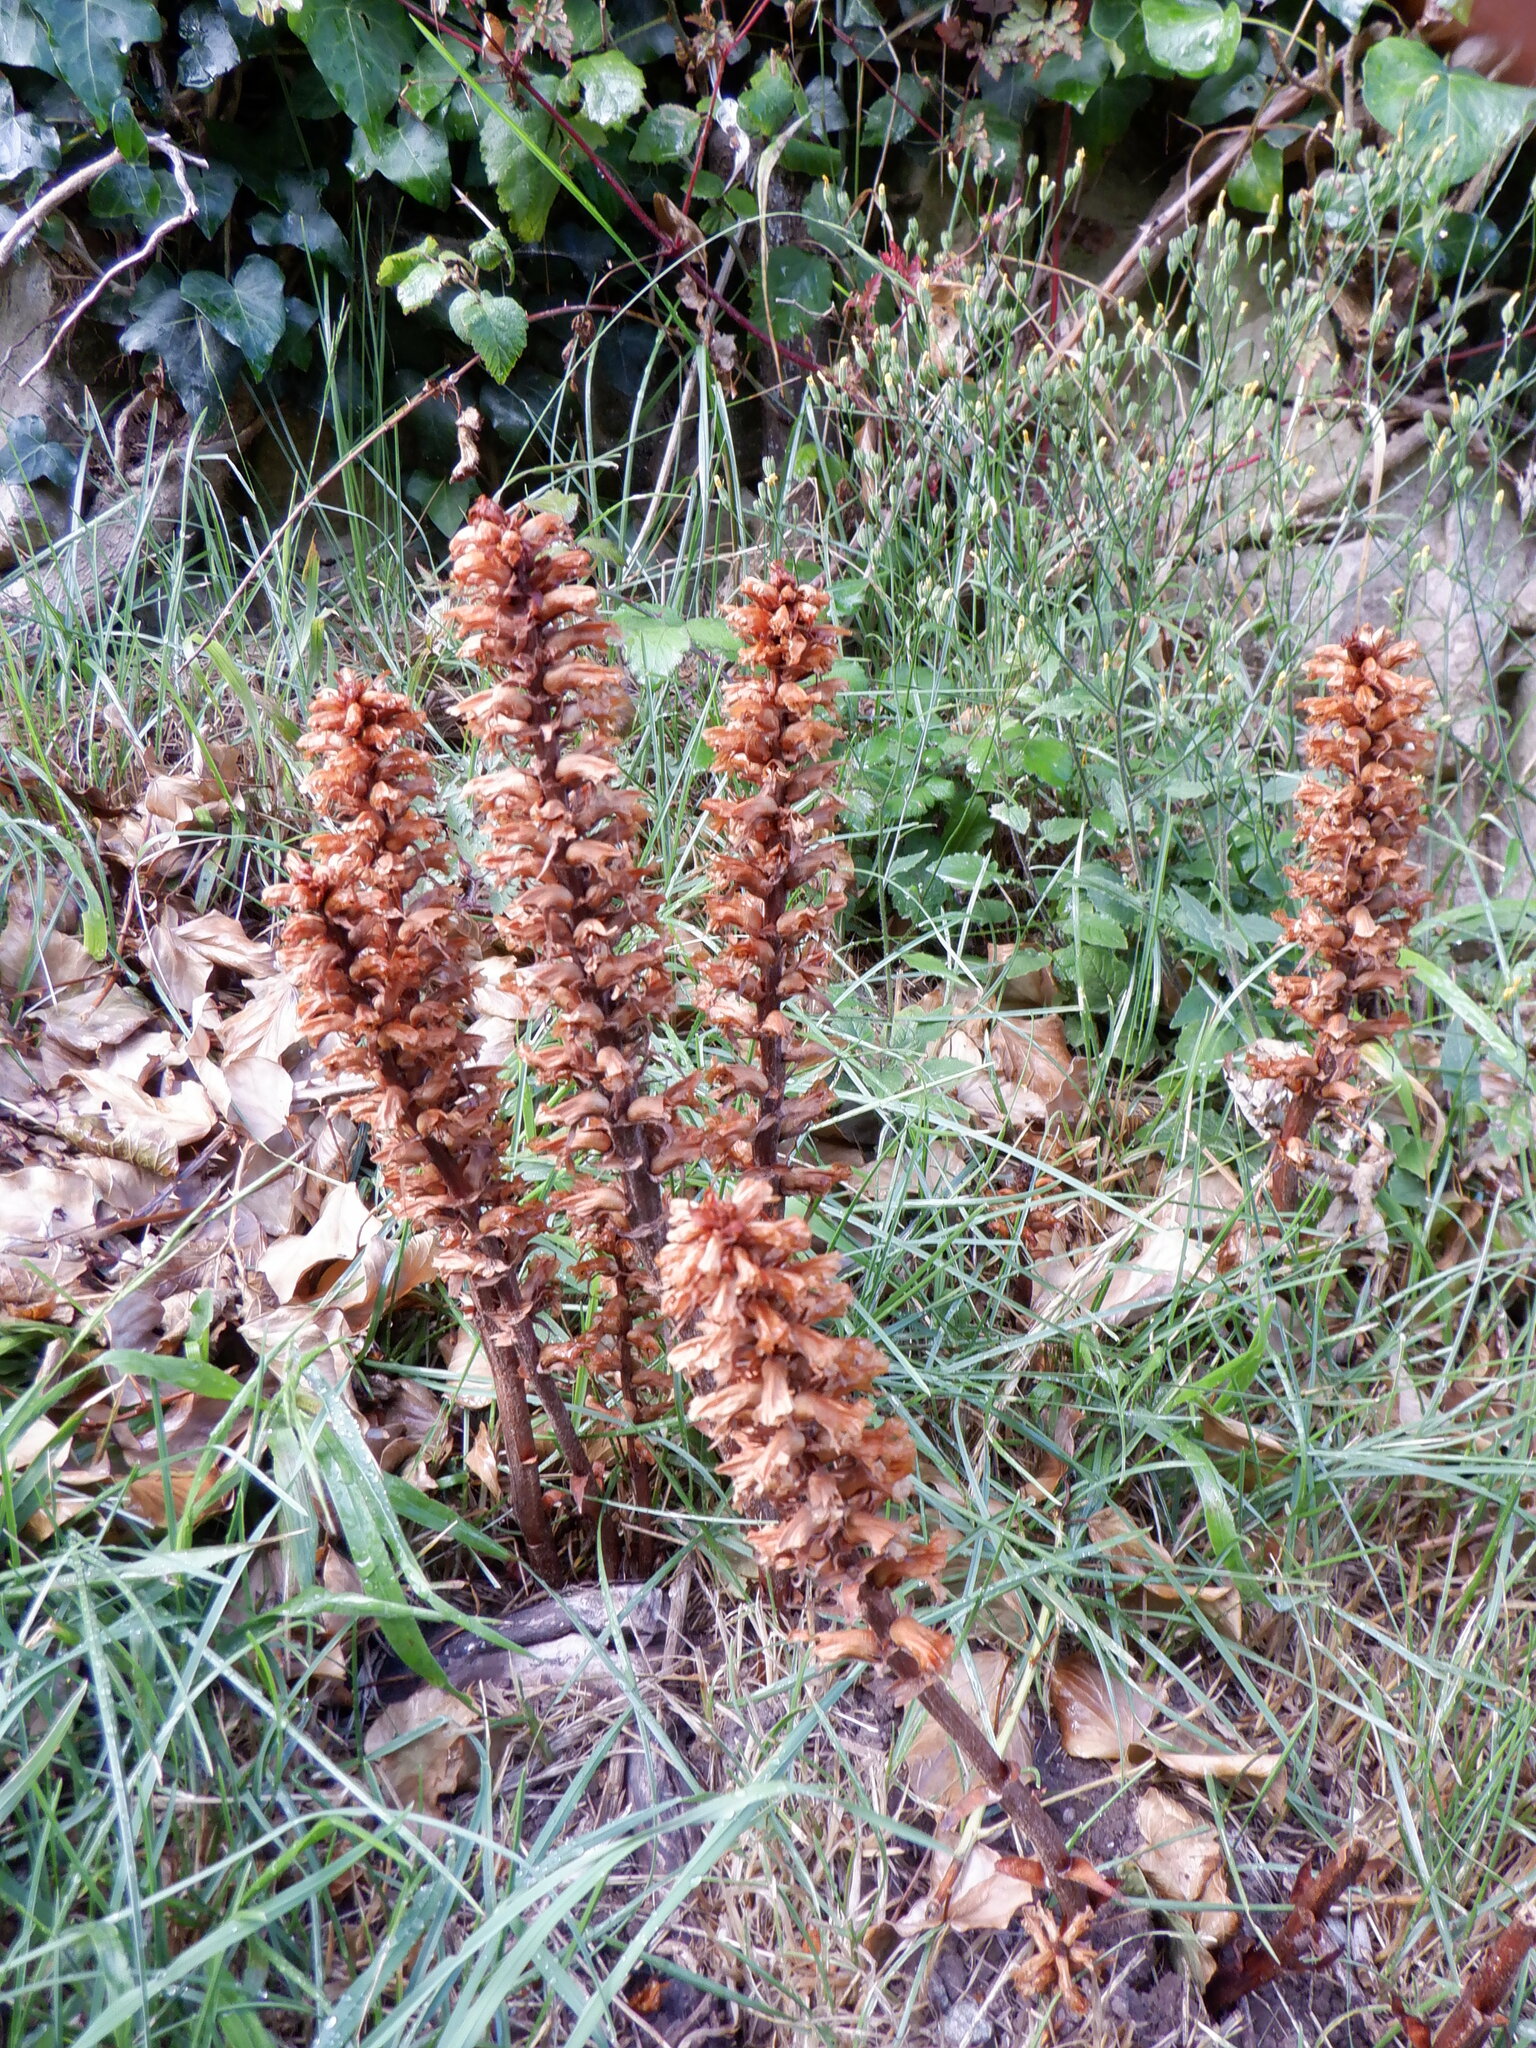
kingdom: Plantae
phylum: Tracheophyta
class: Magnoliopsida
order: Lamiales
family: Orobanchaceae
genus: Orobanche
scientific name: Orobanche hederae
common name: Ivy broomrape
